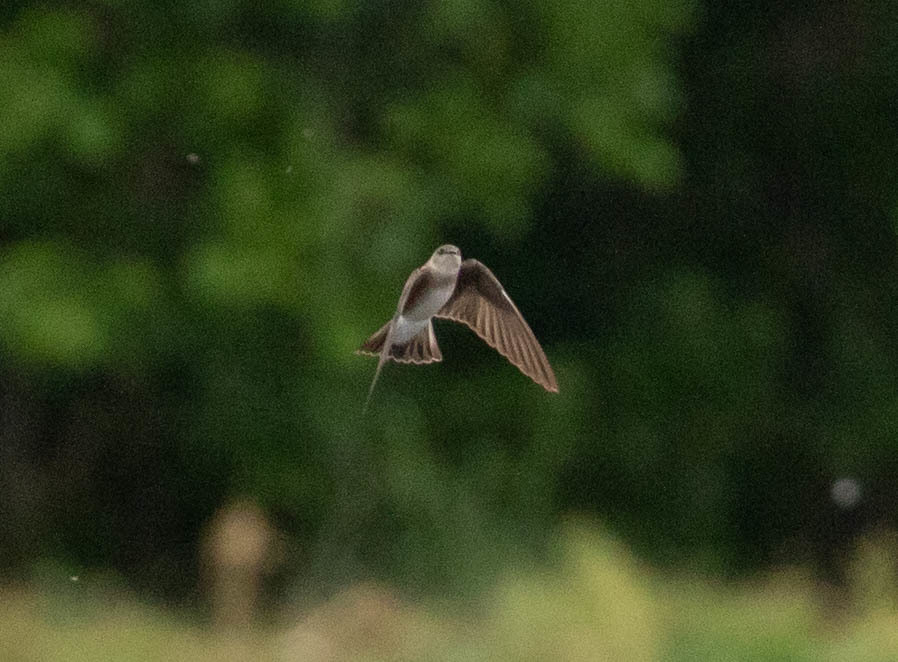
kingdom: Animalia
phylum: Chordata
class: Aves
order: Passeriformes
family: Hirundinidae
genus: Stelgidopteryx
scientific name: Stelgidopteryx serripennis
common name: Northern rough-winged swallow
